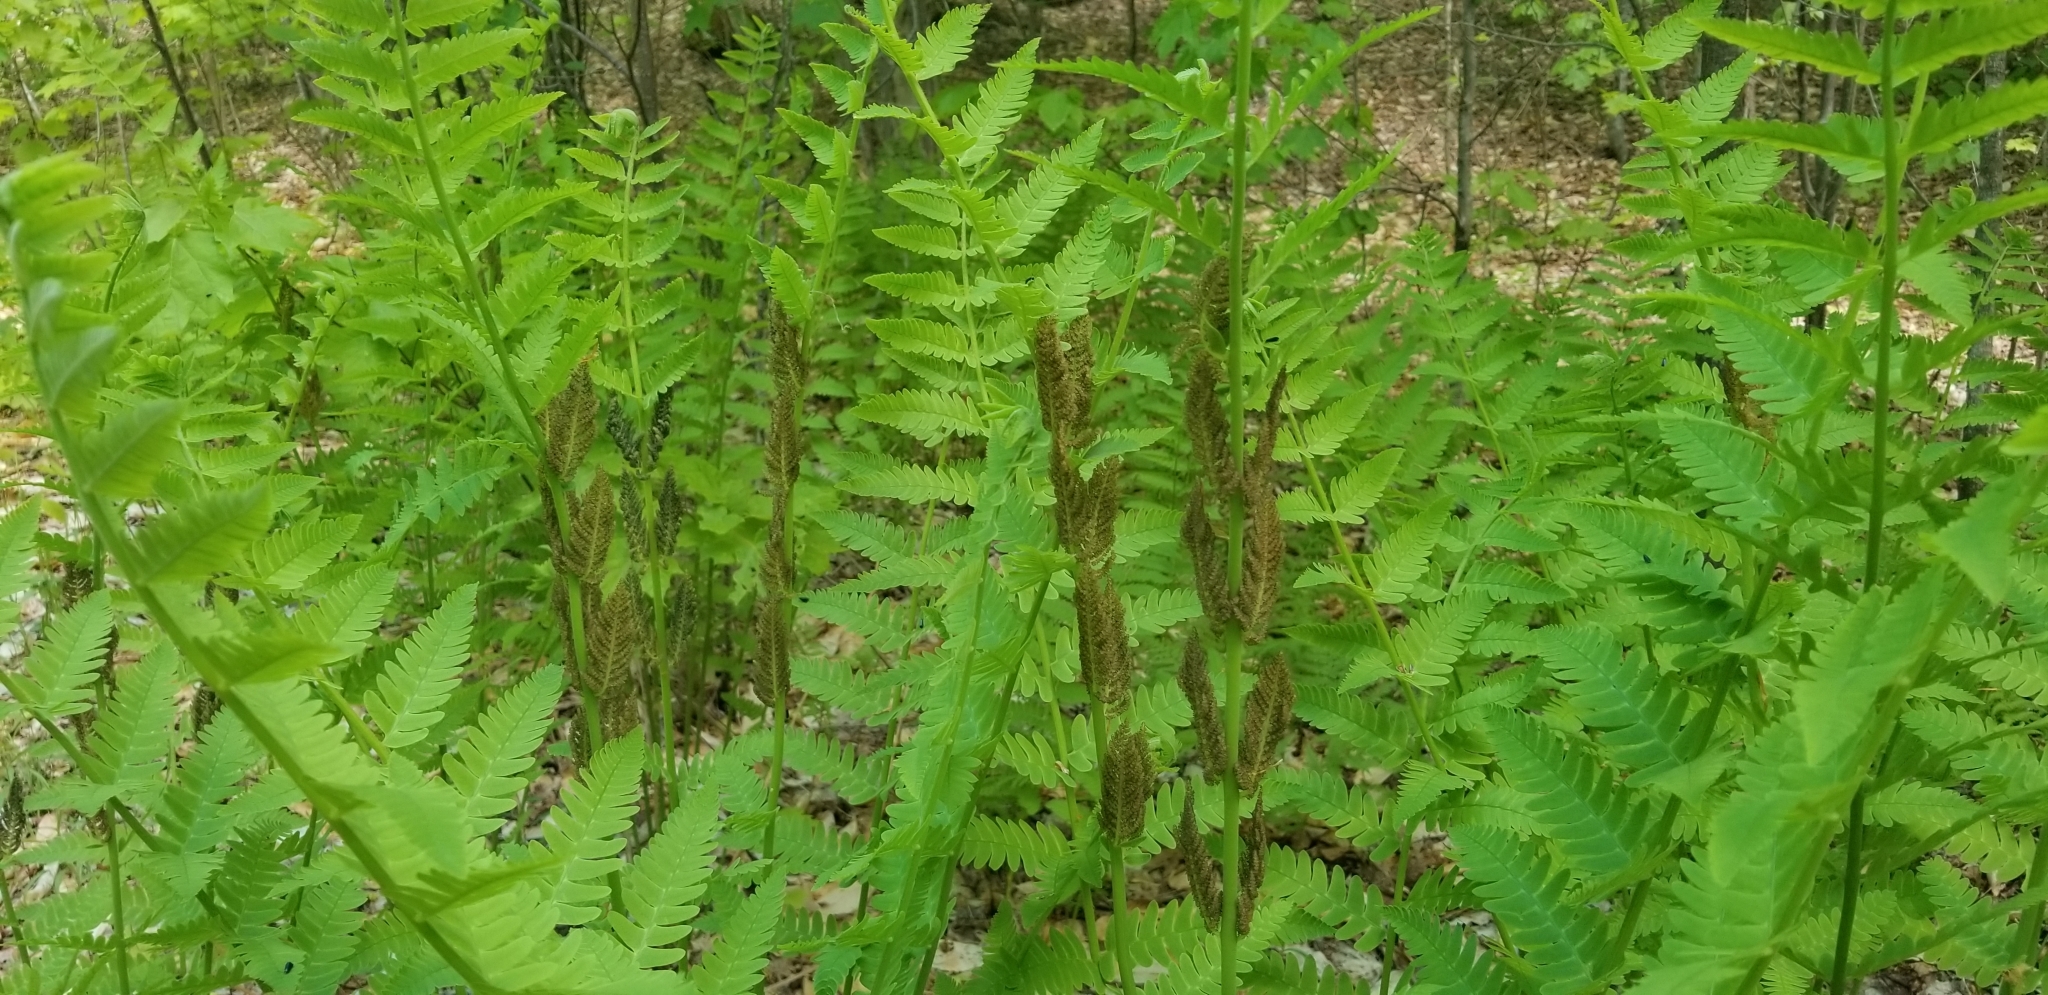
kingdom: Plantae
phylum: Tracheophyta
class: Polypodiopsida
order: Osmundales
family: Osmundaceae
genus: Claytosmunda
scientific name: Claytosmunda claytoniana
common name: Clayton's fern
